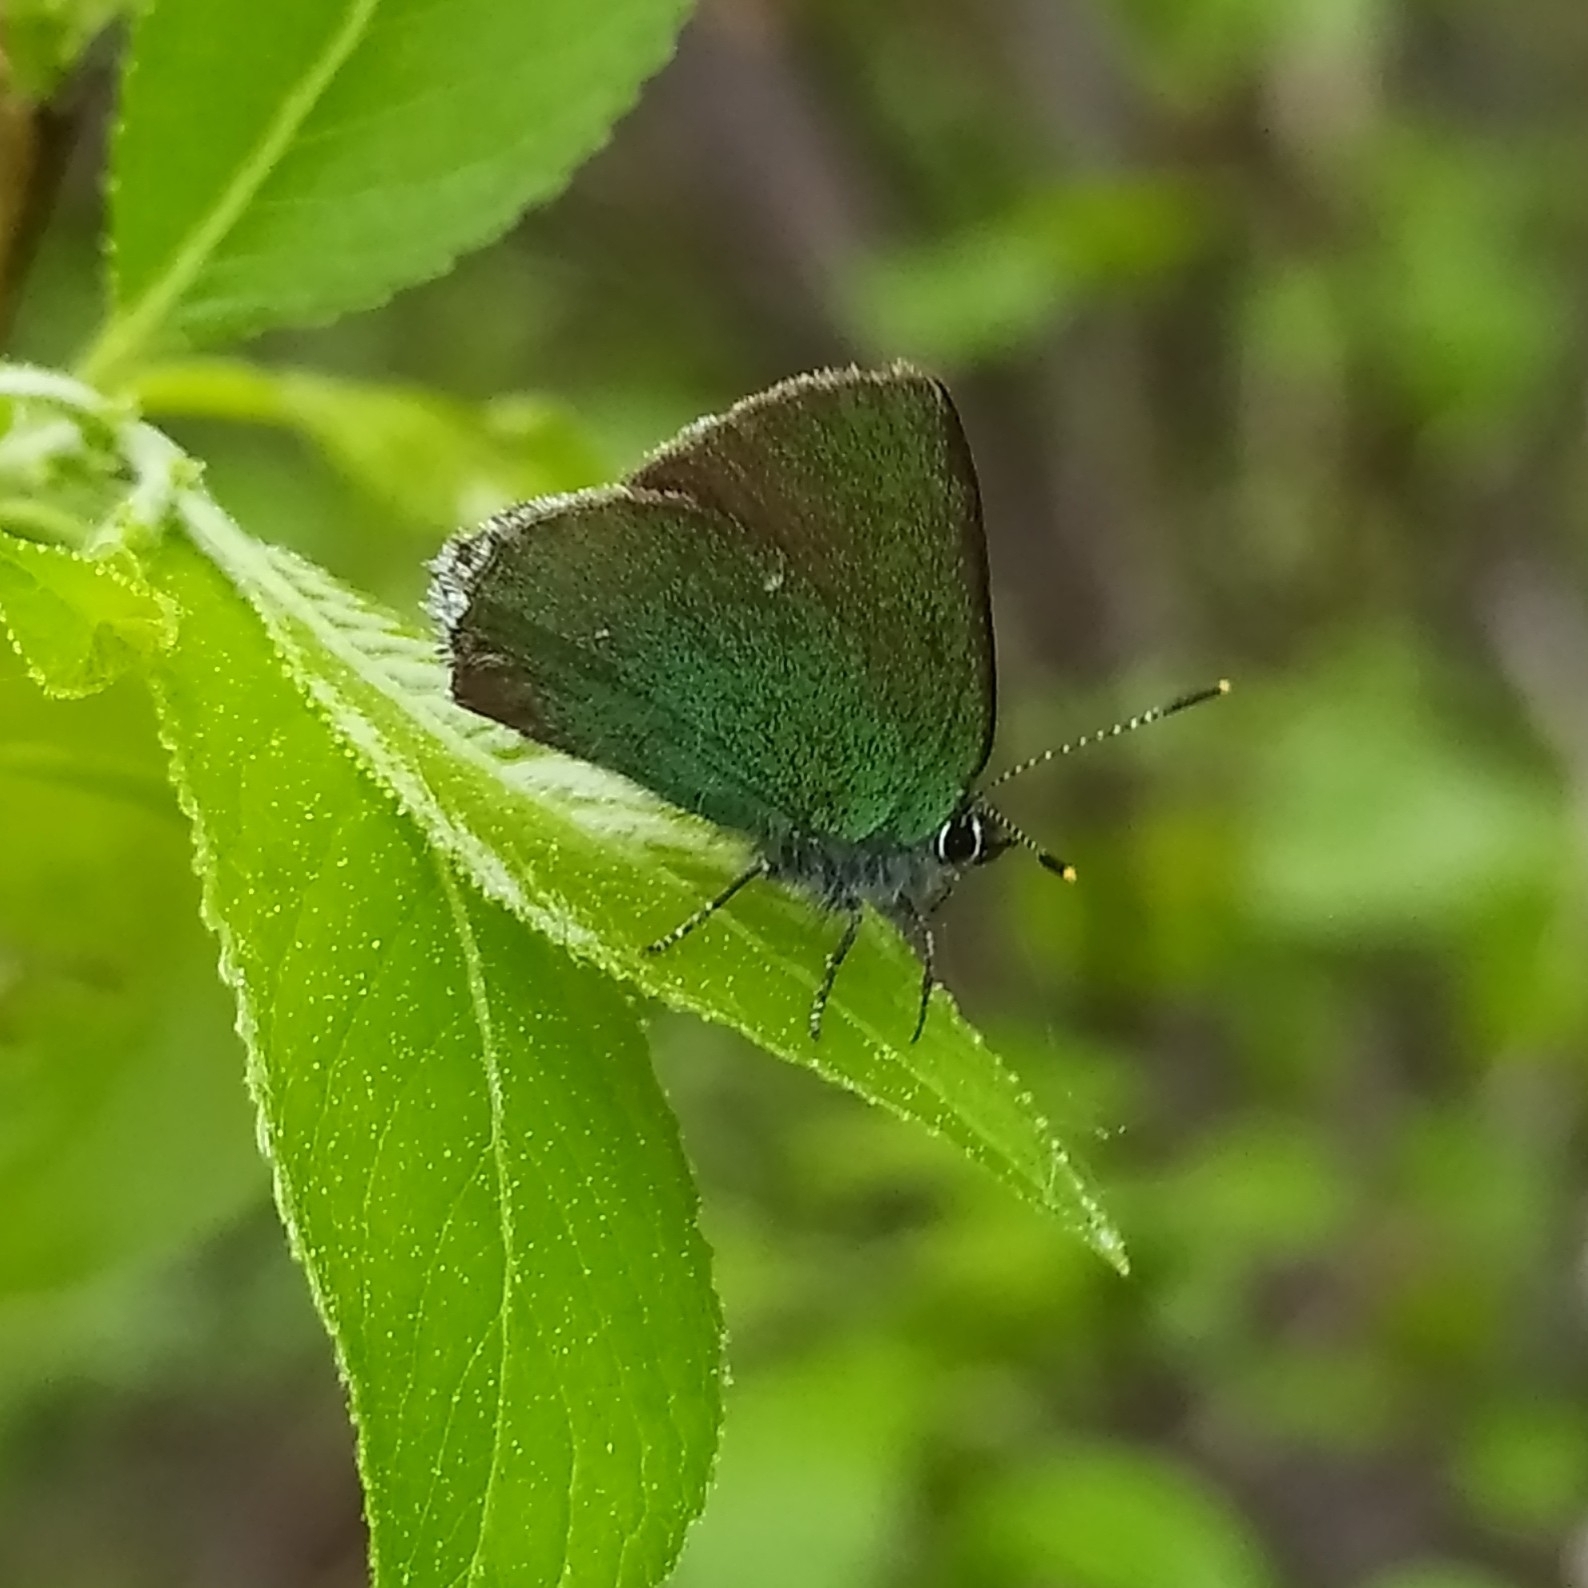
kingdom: Animalia
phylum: Arthropoda
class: Insecta
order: Lepidoptera
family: Lycaenidae
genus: Callophrys
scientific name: Callophrys rubi
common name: Green hairstreak
